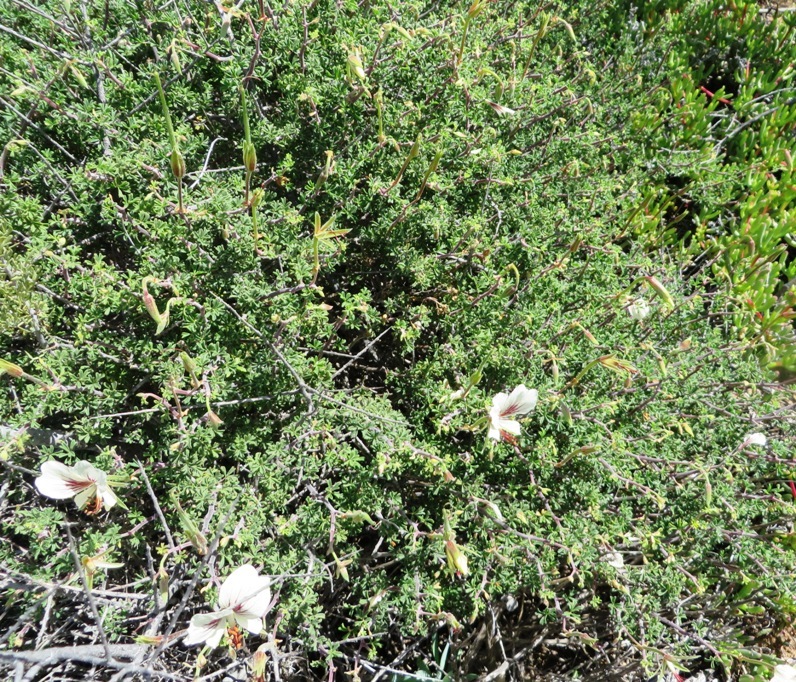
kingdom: Plantae
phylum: Tracheophyta
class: Magnoliopsida
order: Geraniales
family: Geraniaceae
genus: Pelargonium
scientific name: Pelargonium praemorsum
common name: Quinate-leaf pelargonium
